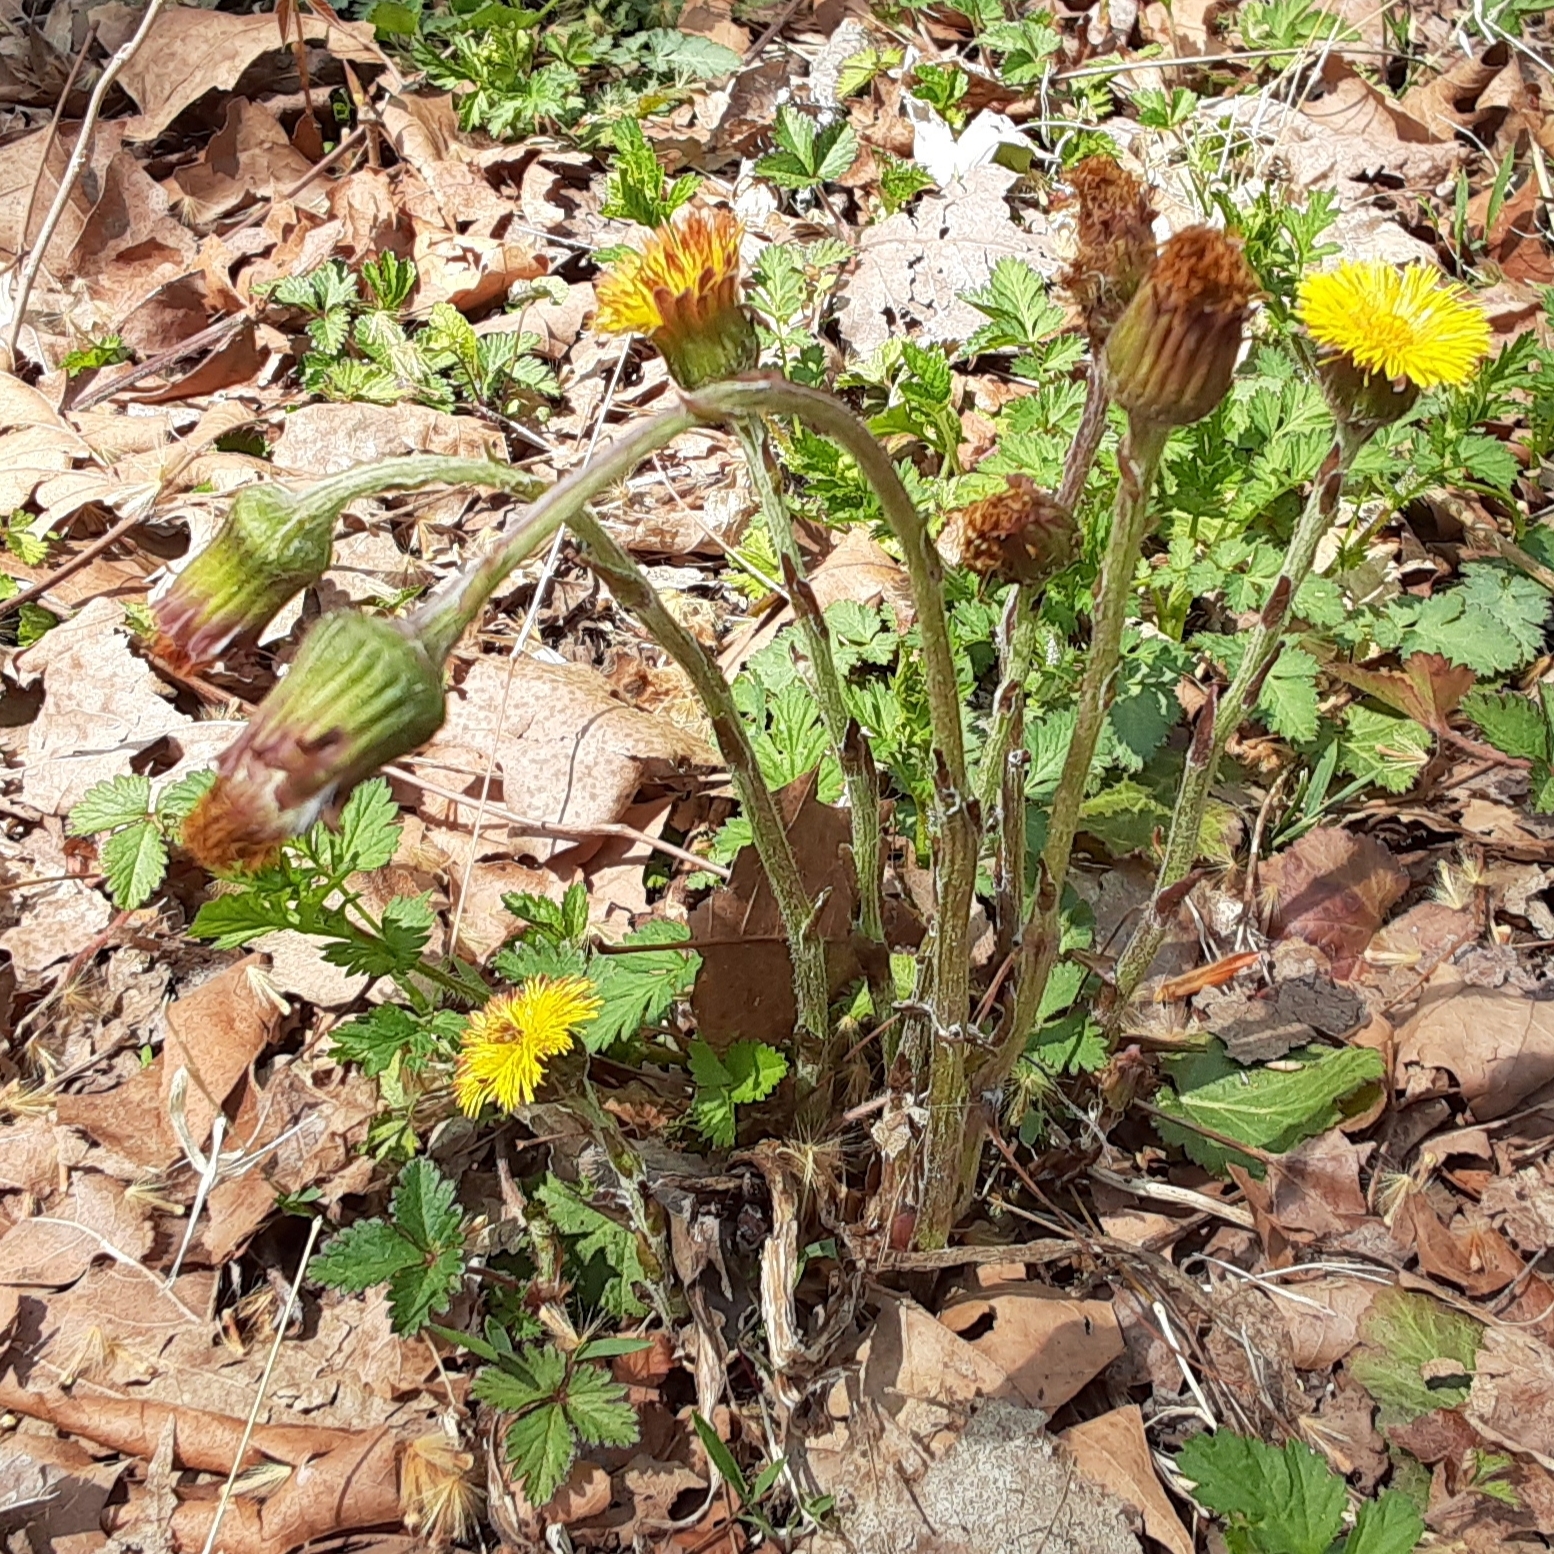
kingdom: Plantae
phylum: Tracheophyta
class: Magnoliopsida
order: Asterales
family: Asteraceae
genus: Tussilago
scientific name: Tussilago farfara
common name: Coltsfoot
